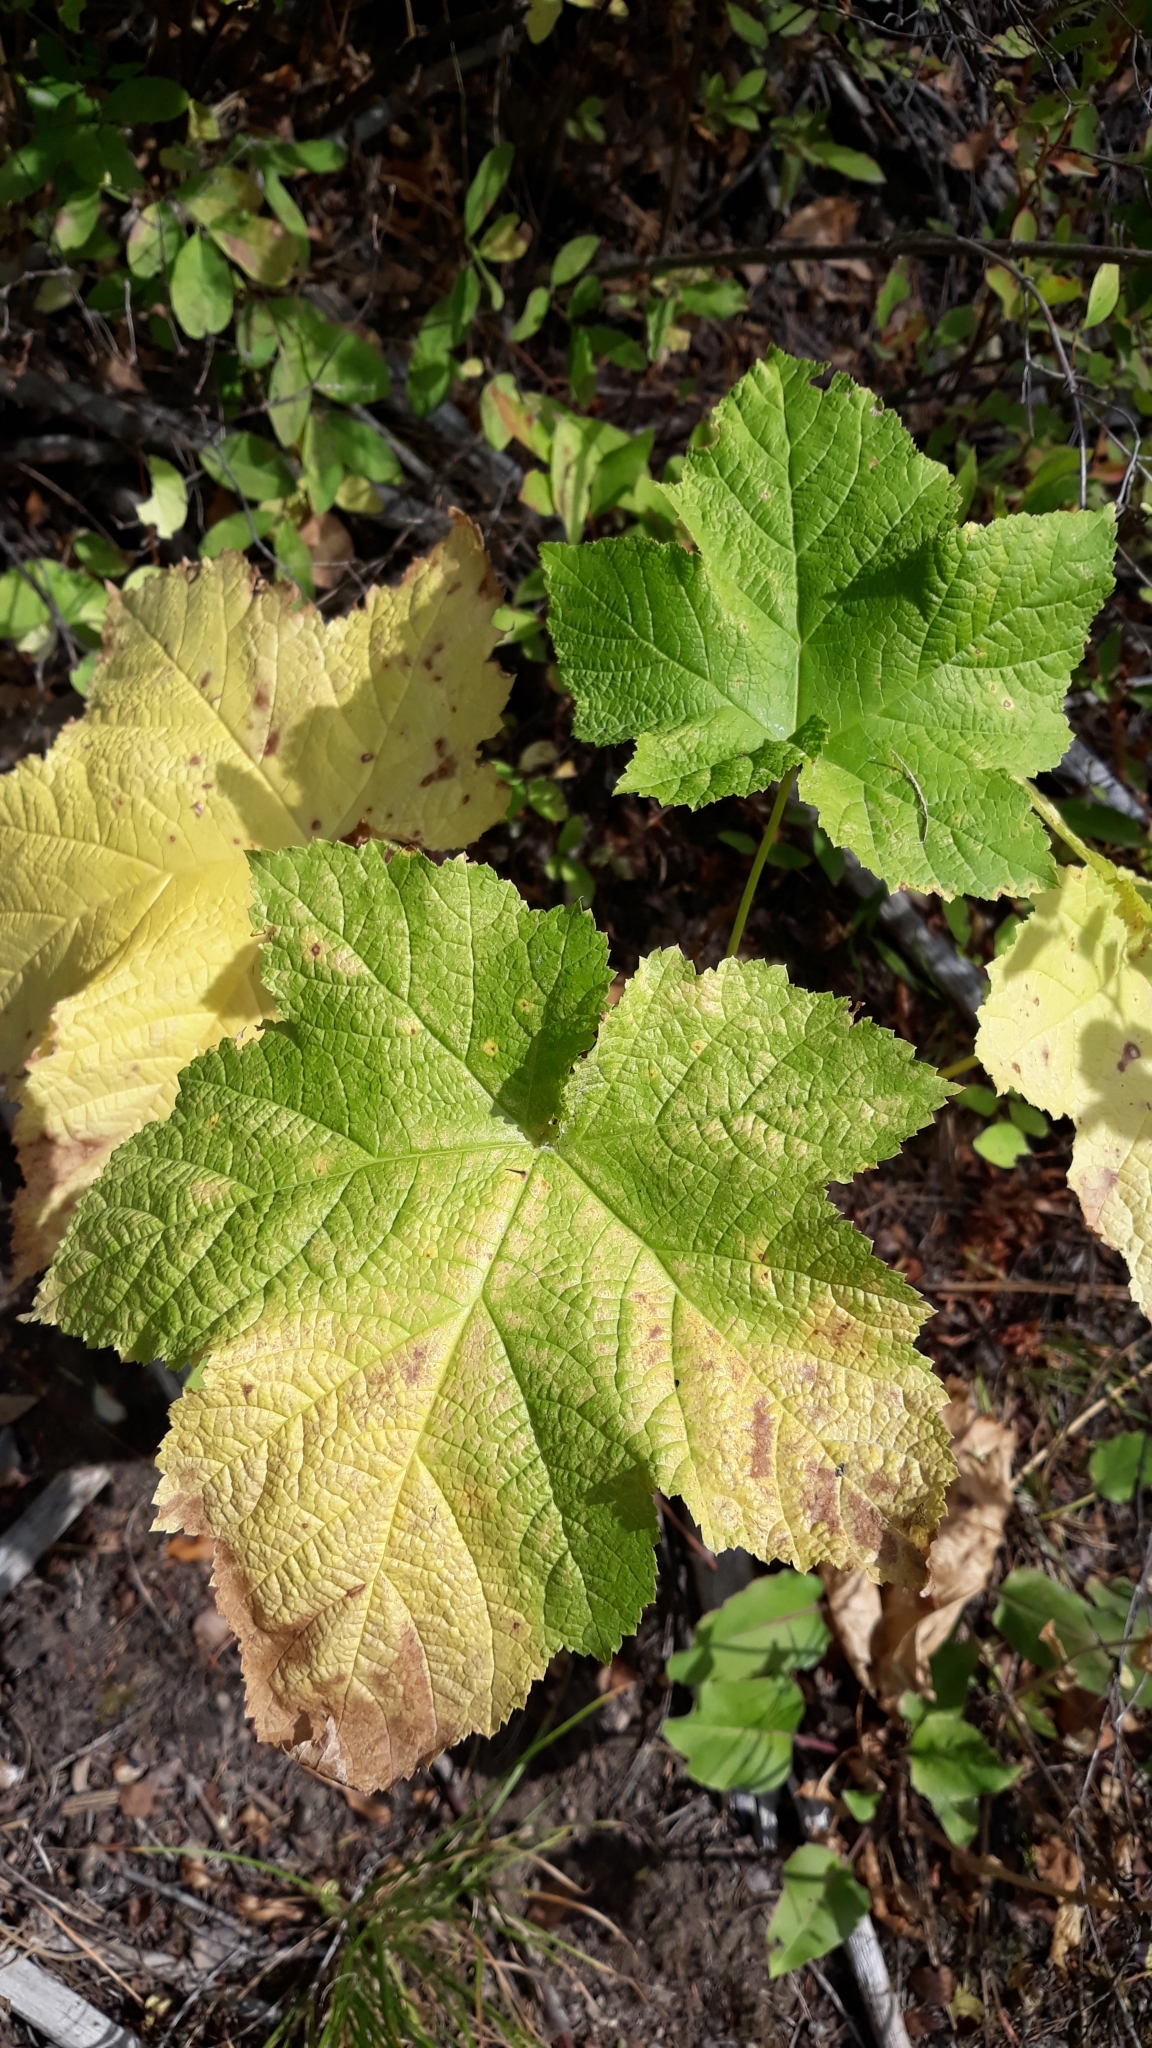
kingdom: Plantae
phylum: Tracheophyta
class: Magnoliopsida
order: Rosales
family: Rosaceae
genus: Rubus
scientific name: Rubus parviflorus
